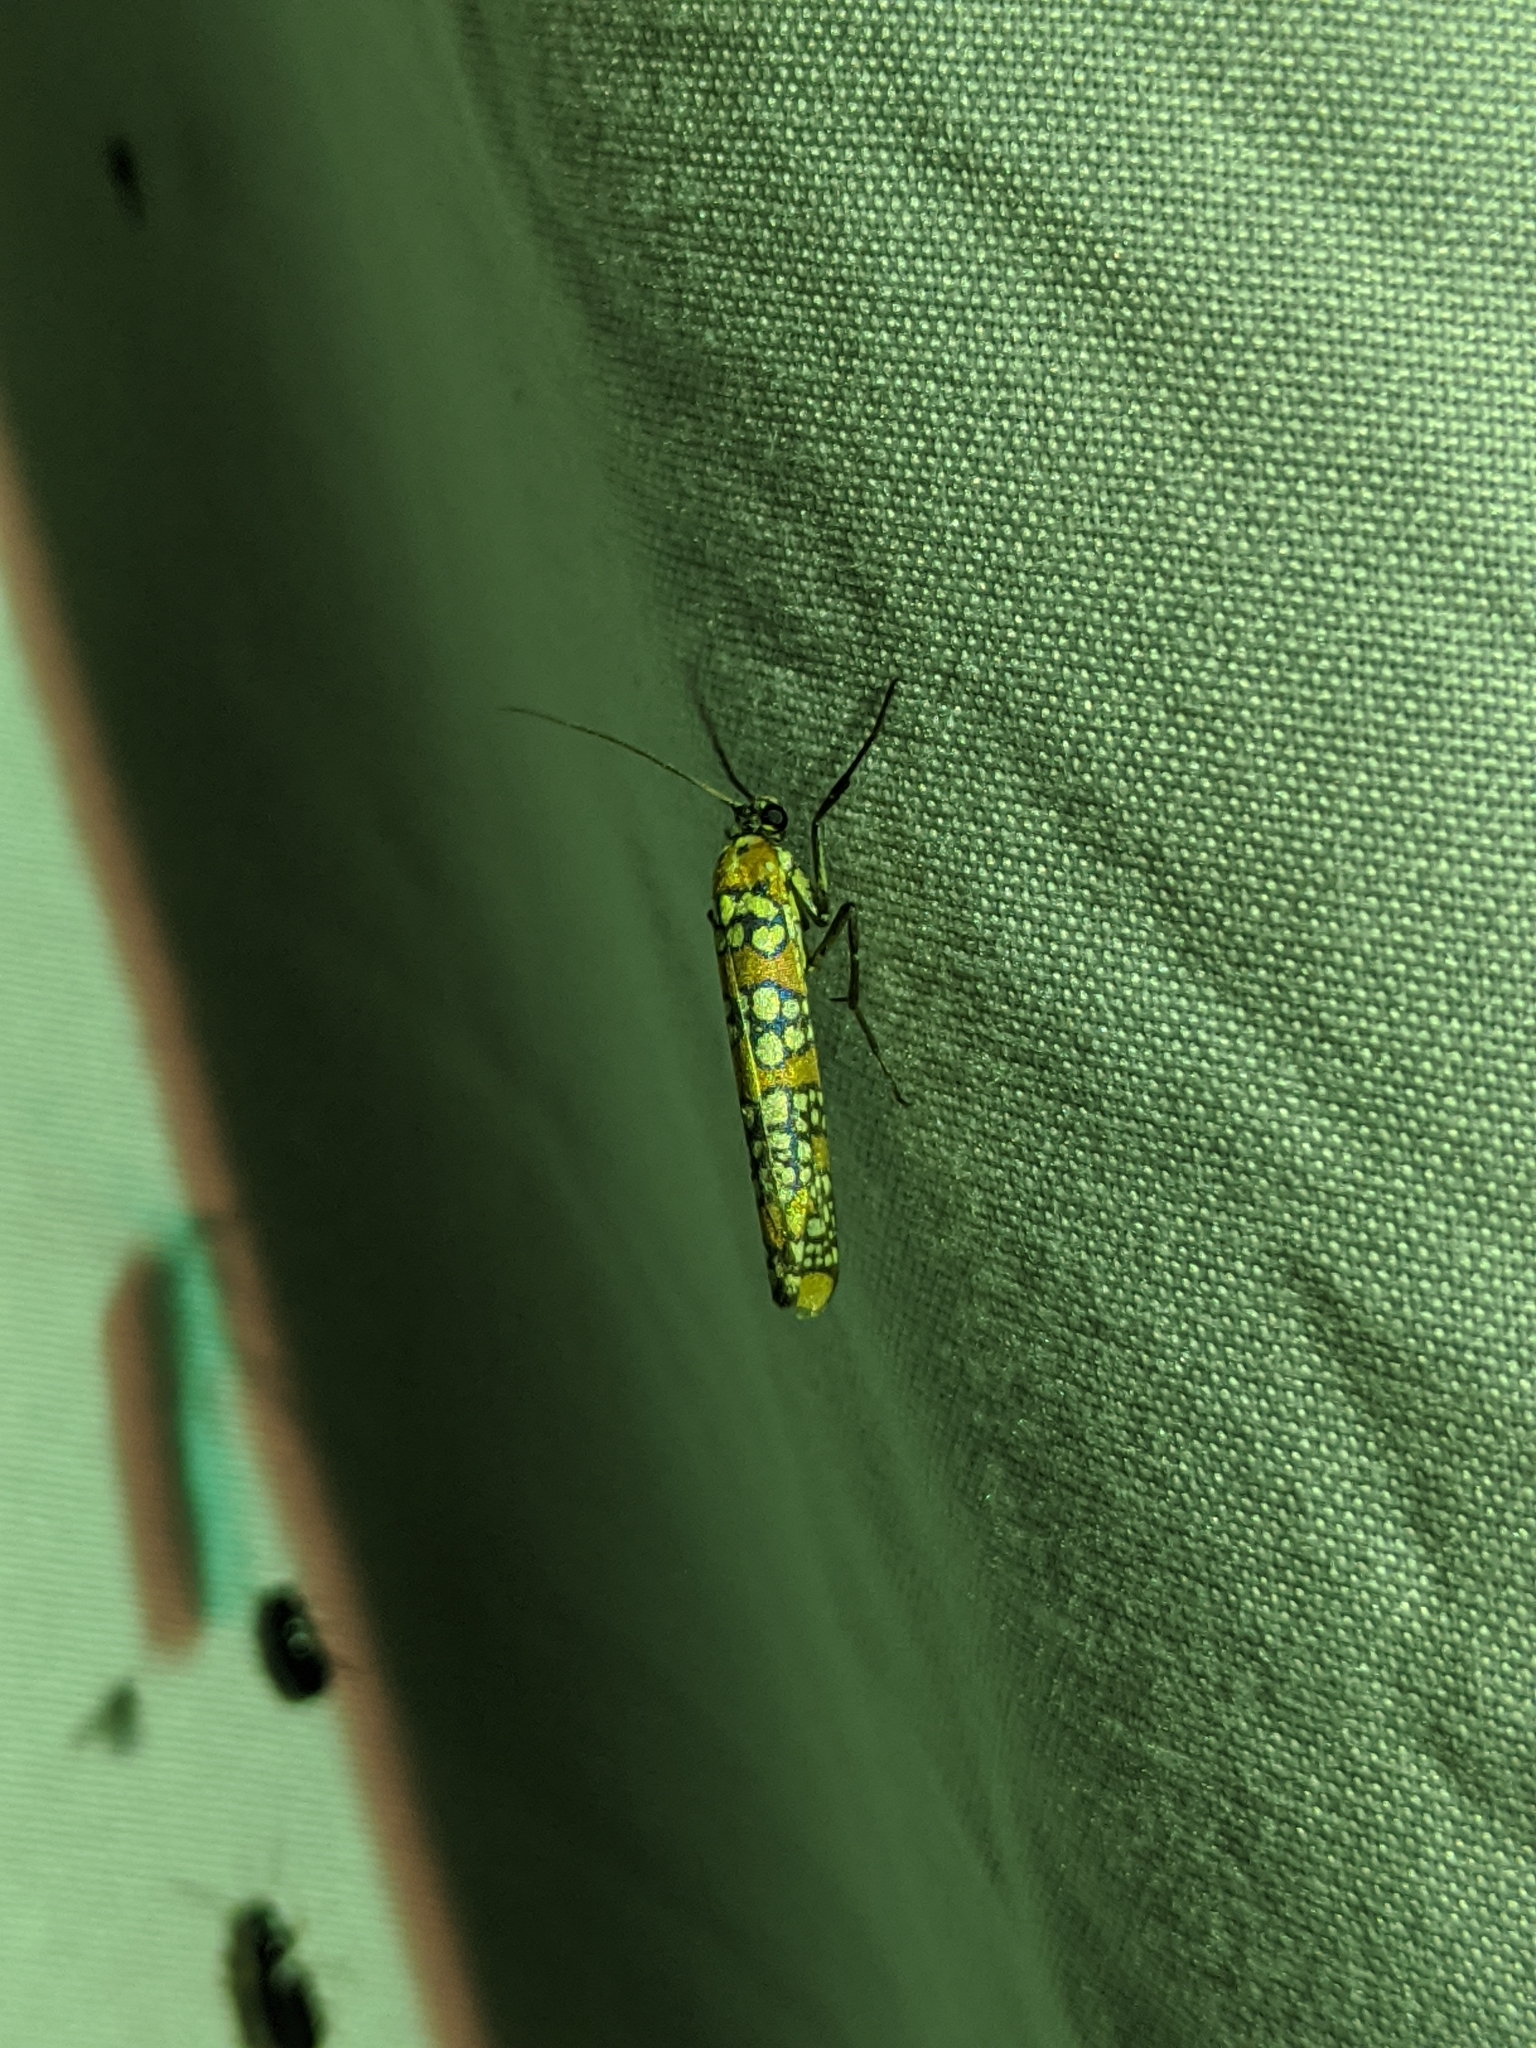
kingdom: Animalia
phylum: Arthropoda
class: Insecta
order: Lepidoptera
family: Attevidae
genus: Atteva
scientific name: Atteva punctella
